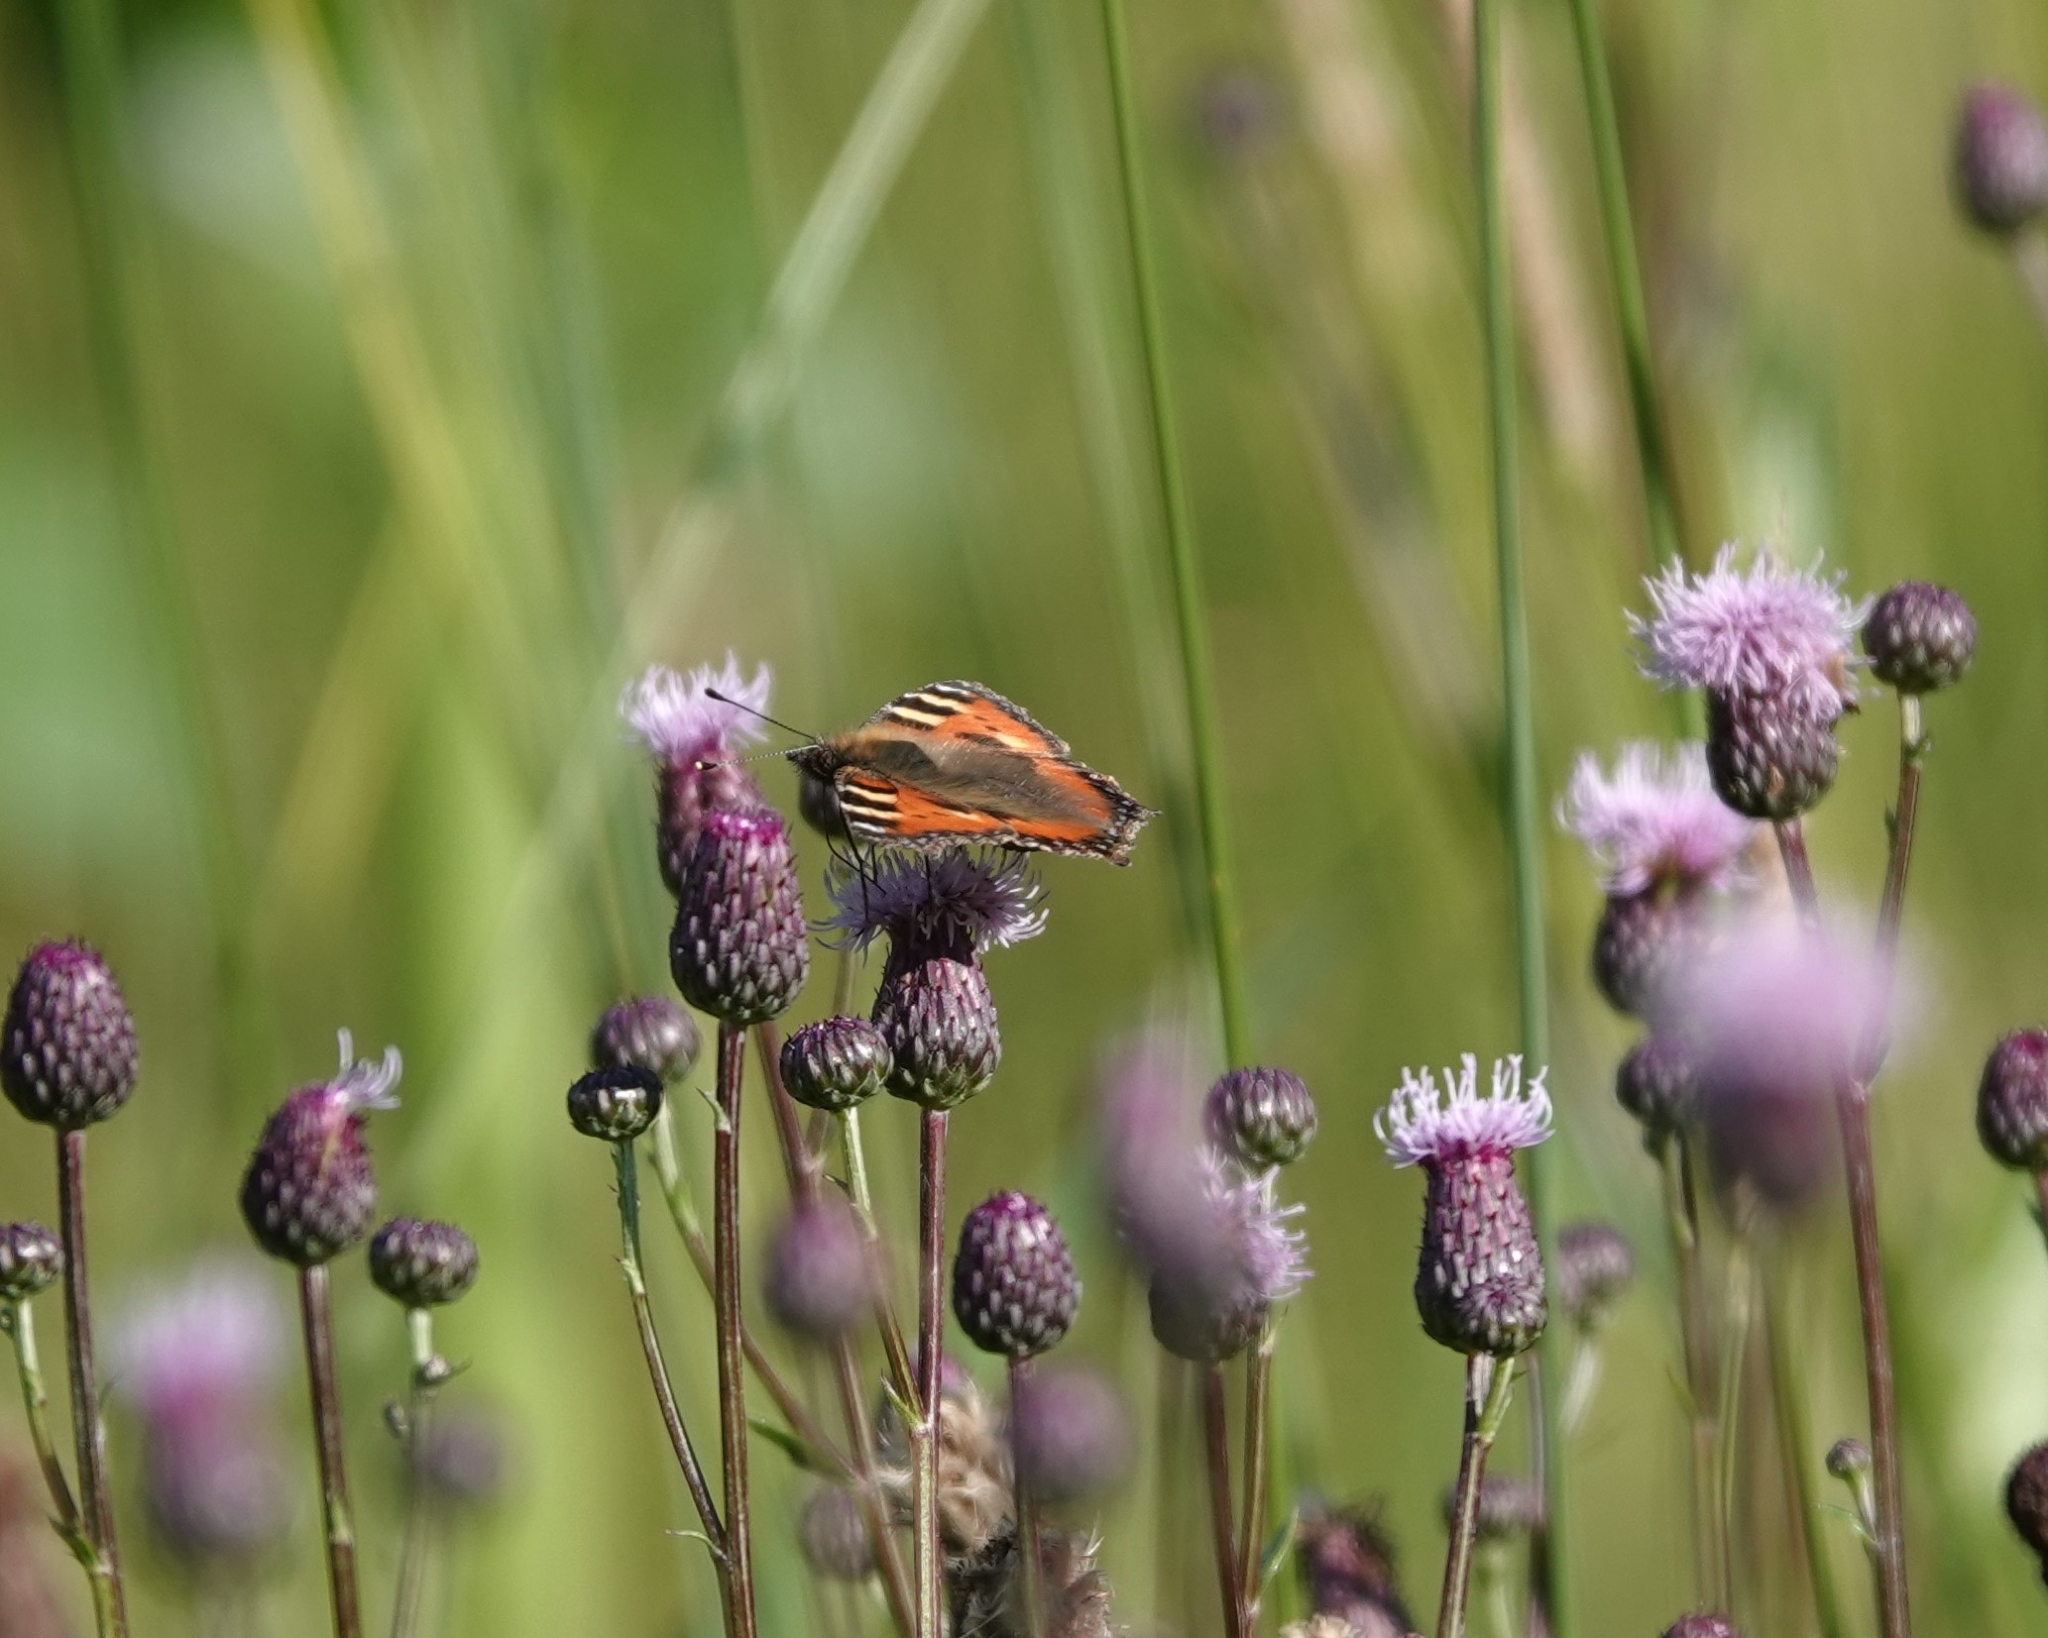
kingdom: Animalia
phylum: Arthropoda
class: Insecta
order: Lepidoptera
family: Nymphalidae
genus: Aglais
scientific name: Aglais urticae
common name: Small tortoiseshell
